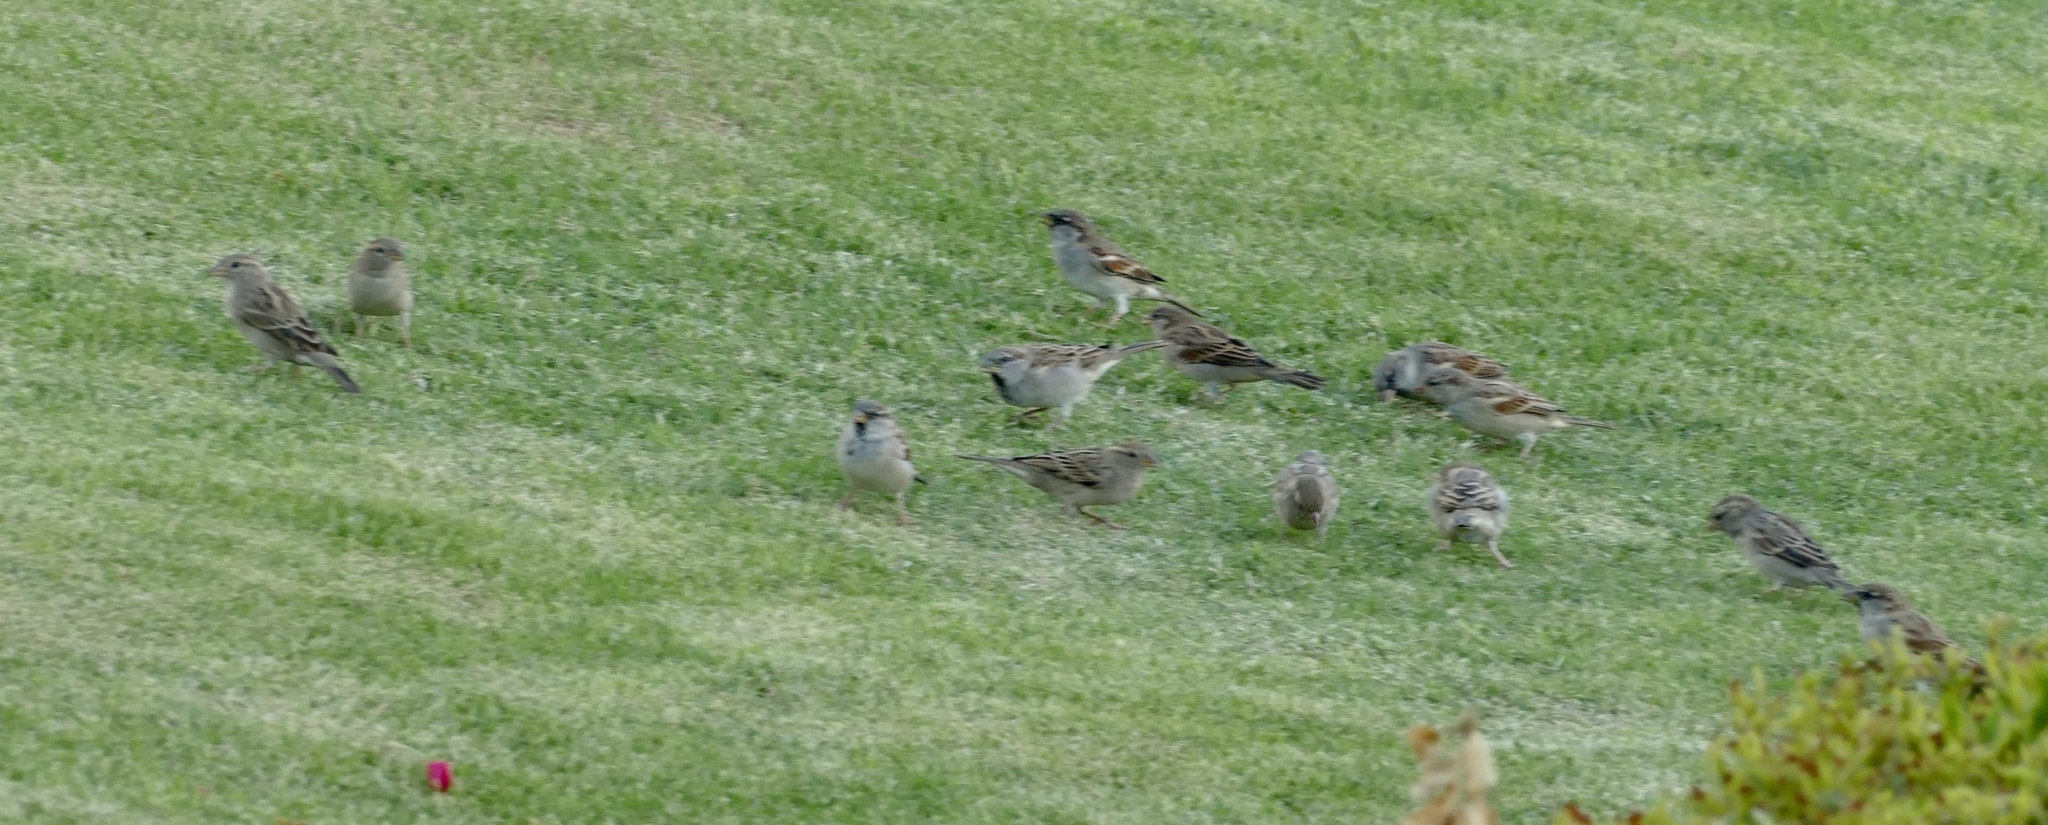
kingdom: Animalia
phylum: Chordata
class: Aves
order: Passeriformes
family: Passeridae
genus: Passer
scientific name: Passer domesticus
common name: House sparrow
